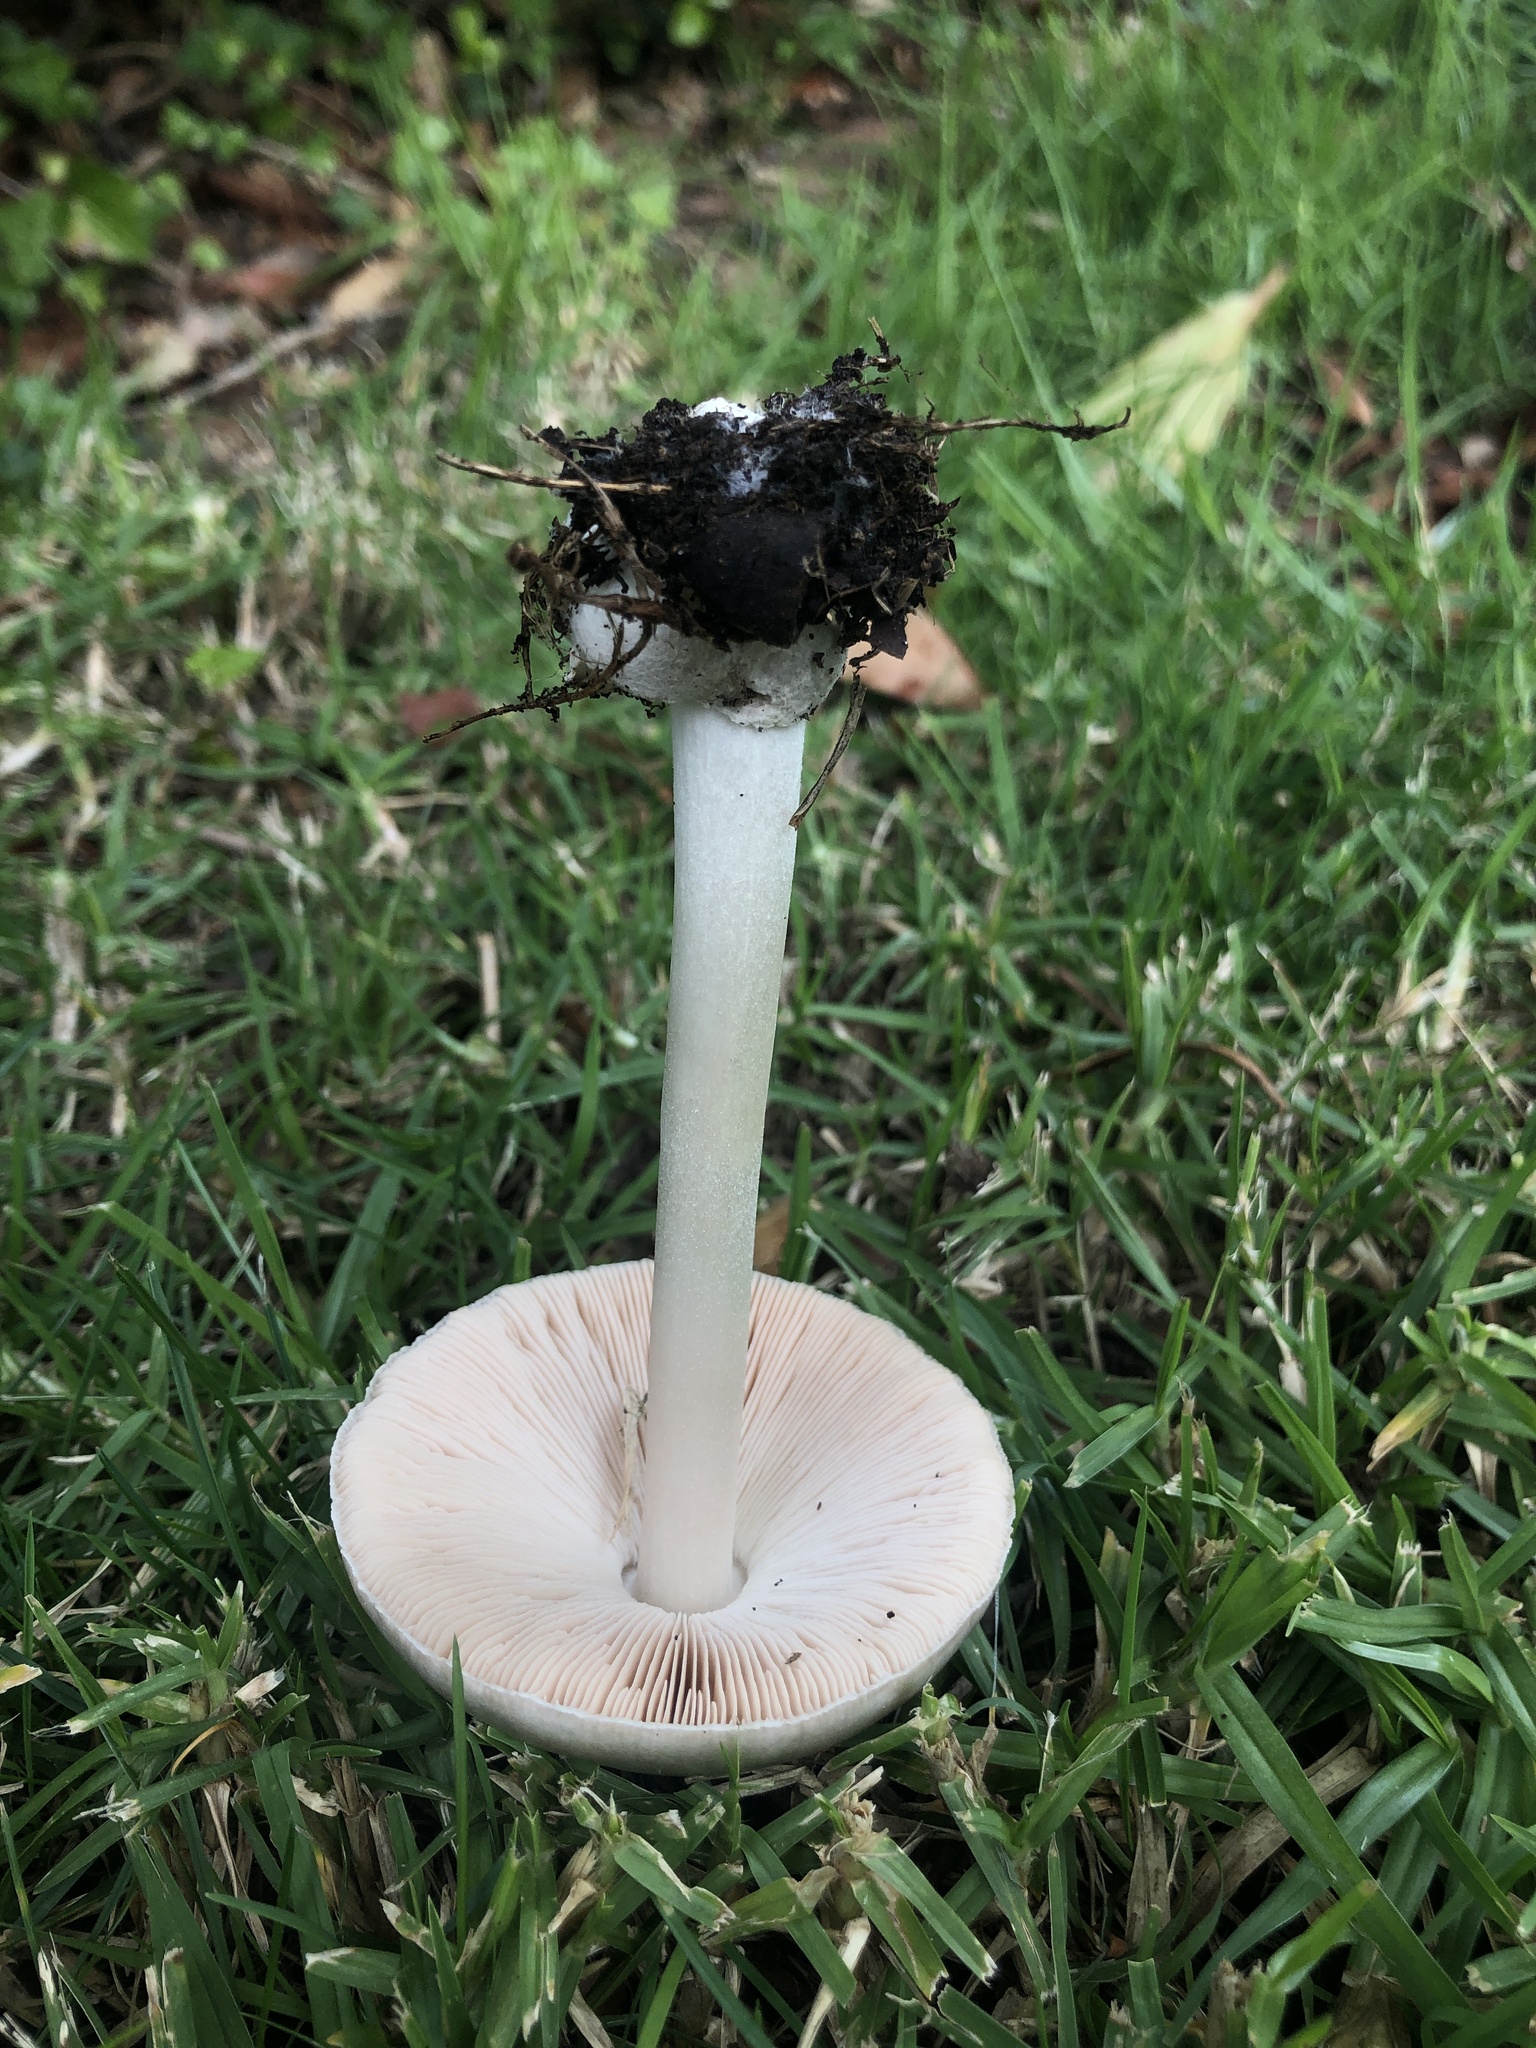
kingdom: Fungi
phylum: Basidiomycota
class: Agaricomycetes
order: Agaricales
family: Pluteaceae
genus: Volvopluteus
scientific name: Volvopluteus gloiocephalus
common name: Stubble rosegill
